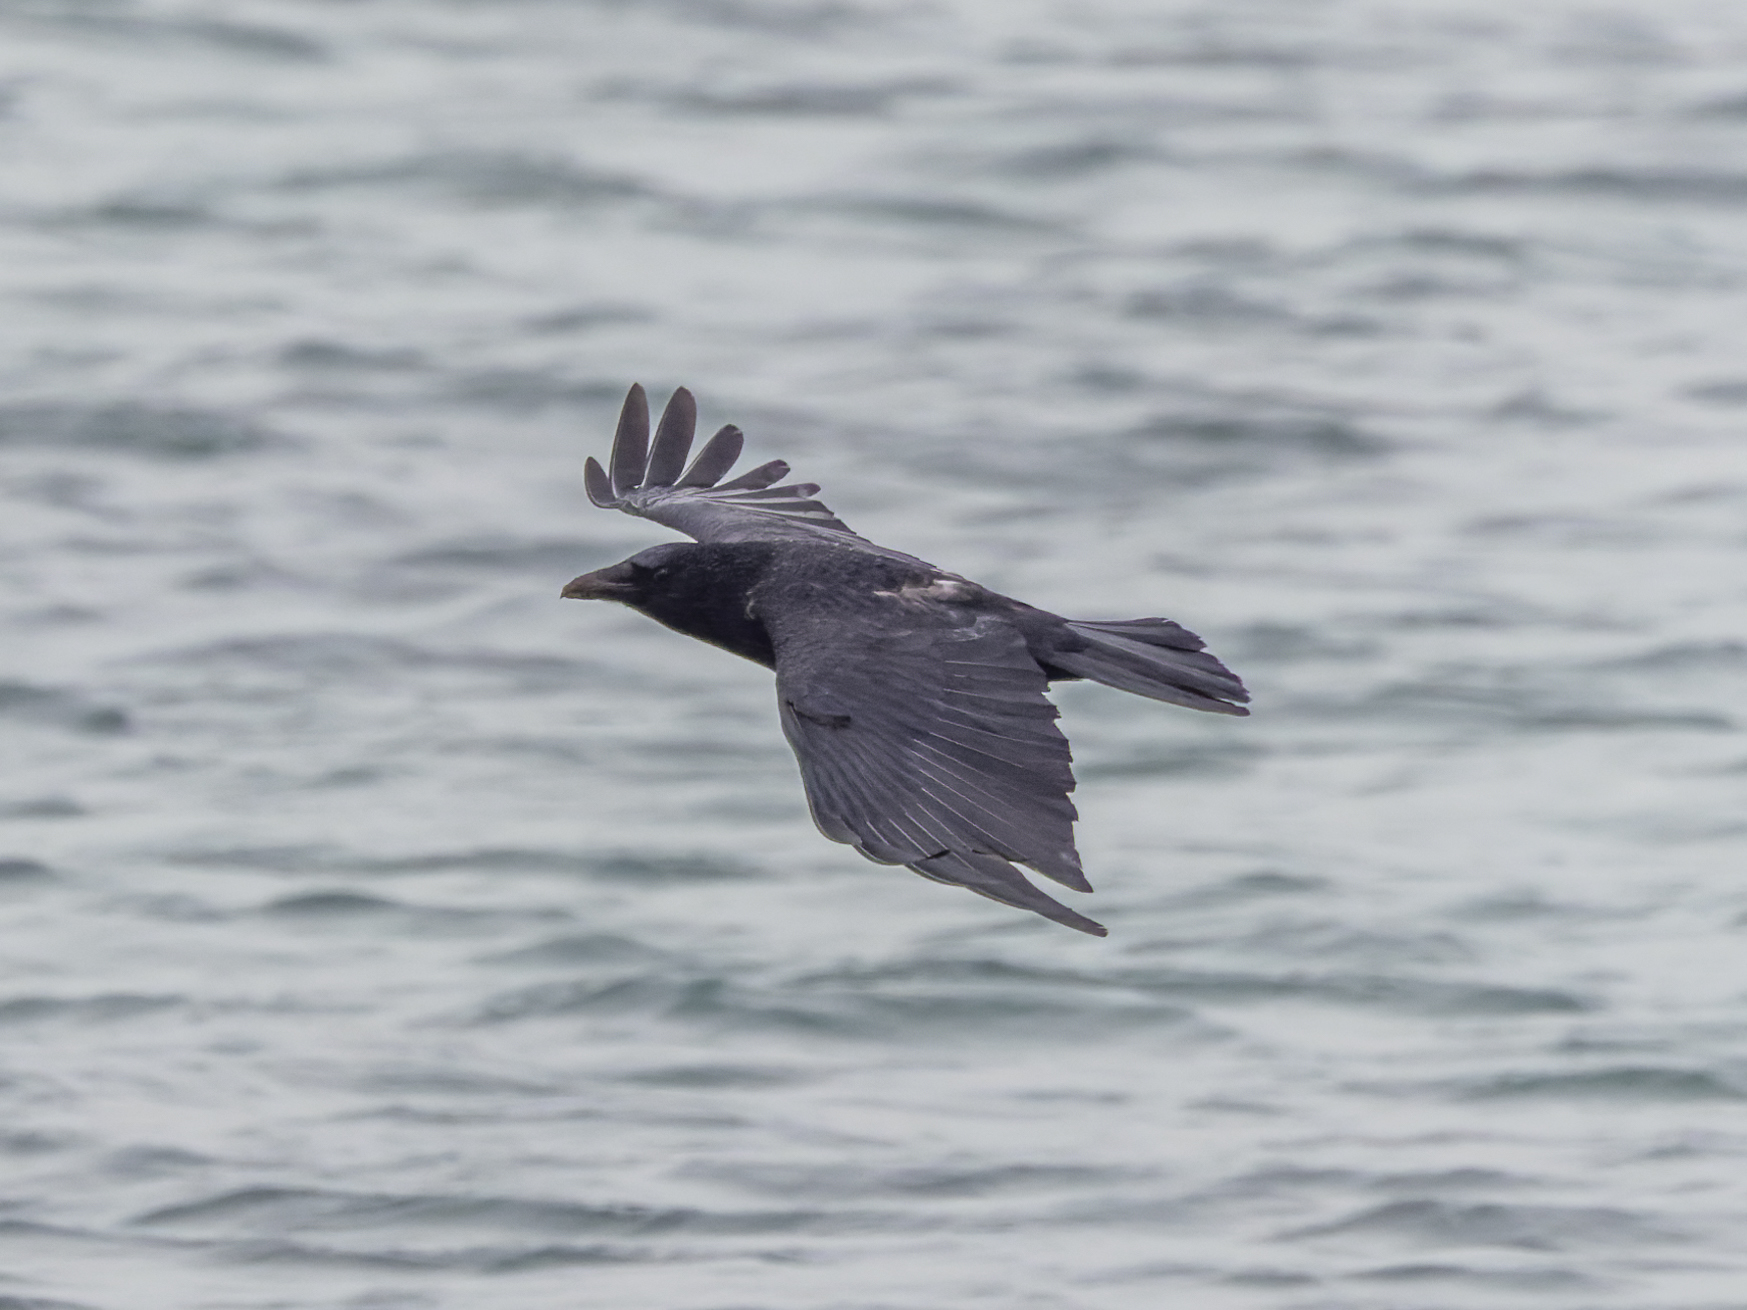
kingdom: Animalia
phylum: Chordata
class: Aves
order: Passeriformes
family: Corvidae
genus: Corvus
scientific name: Corvus corax
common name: Common raven
